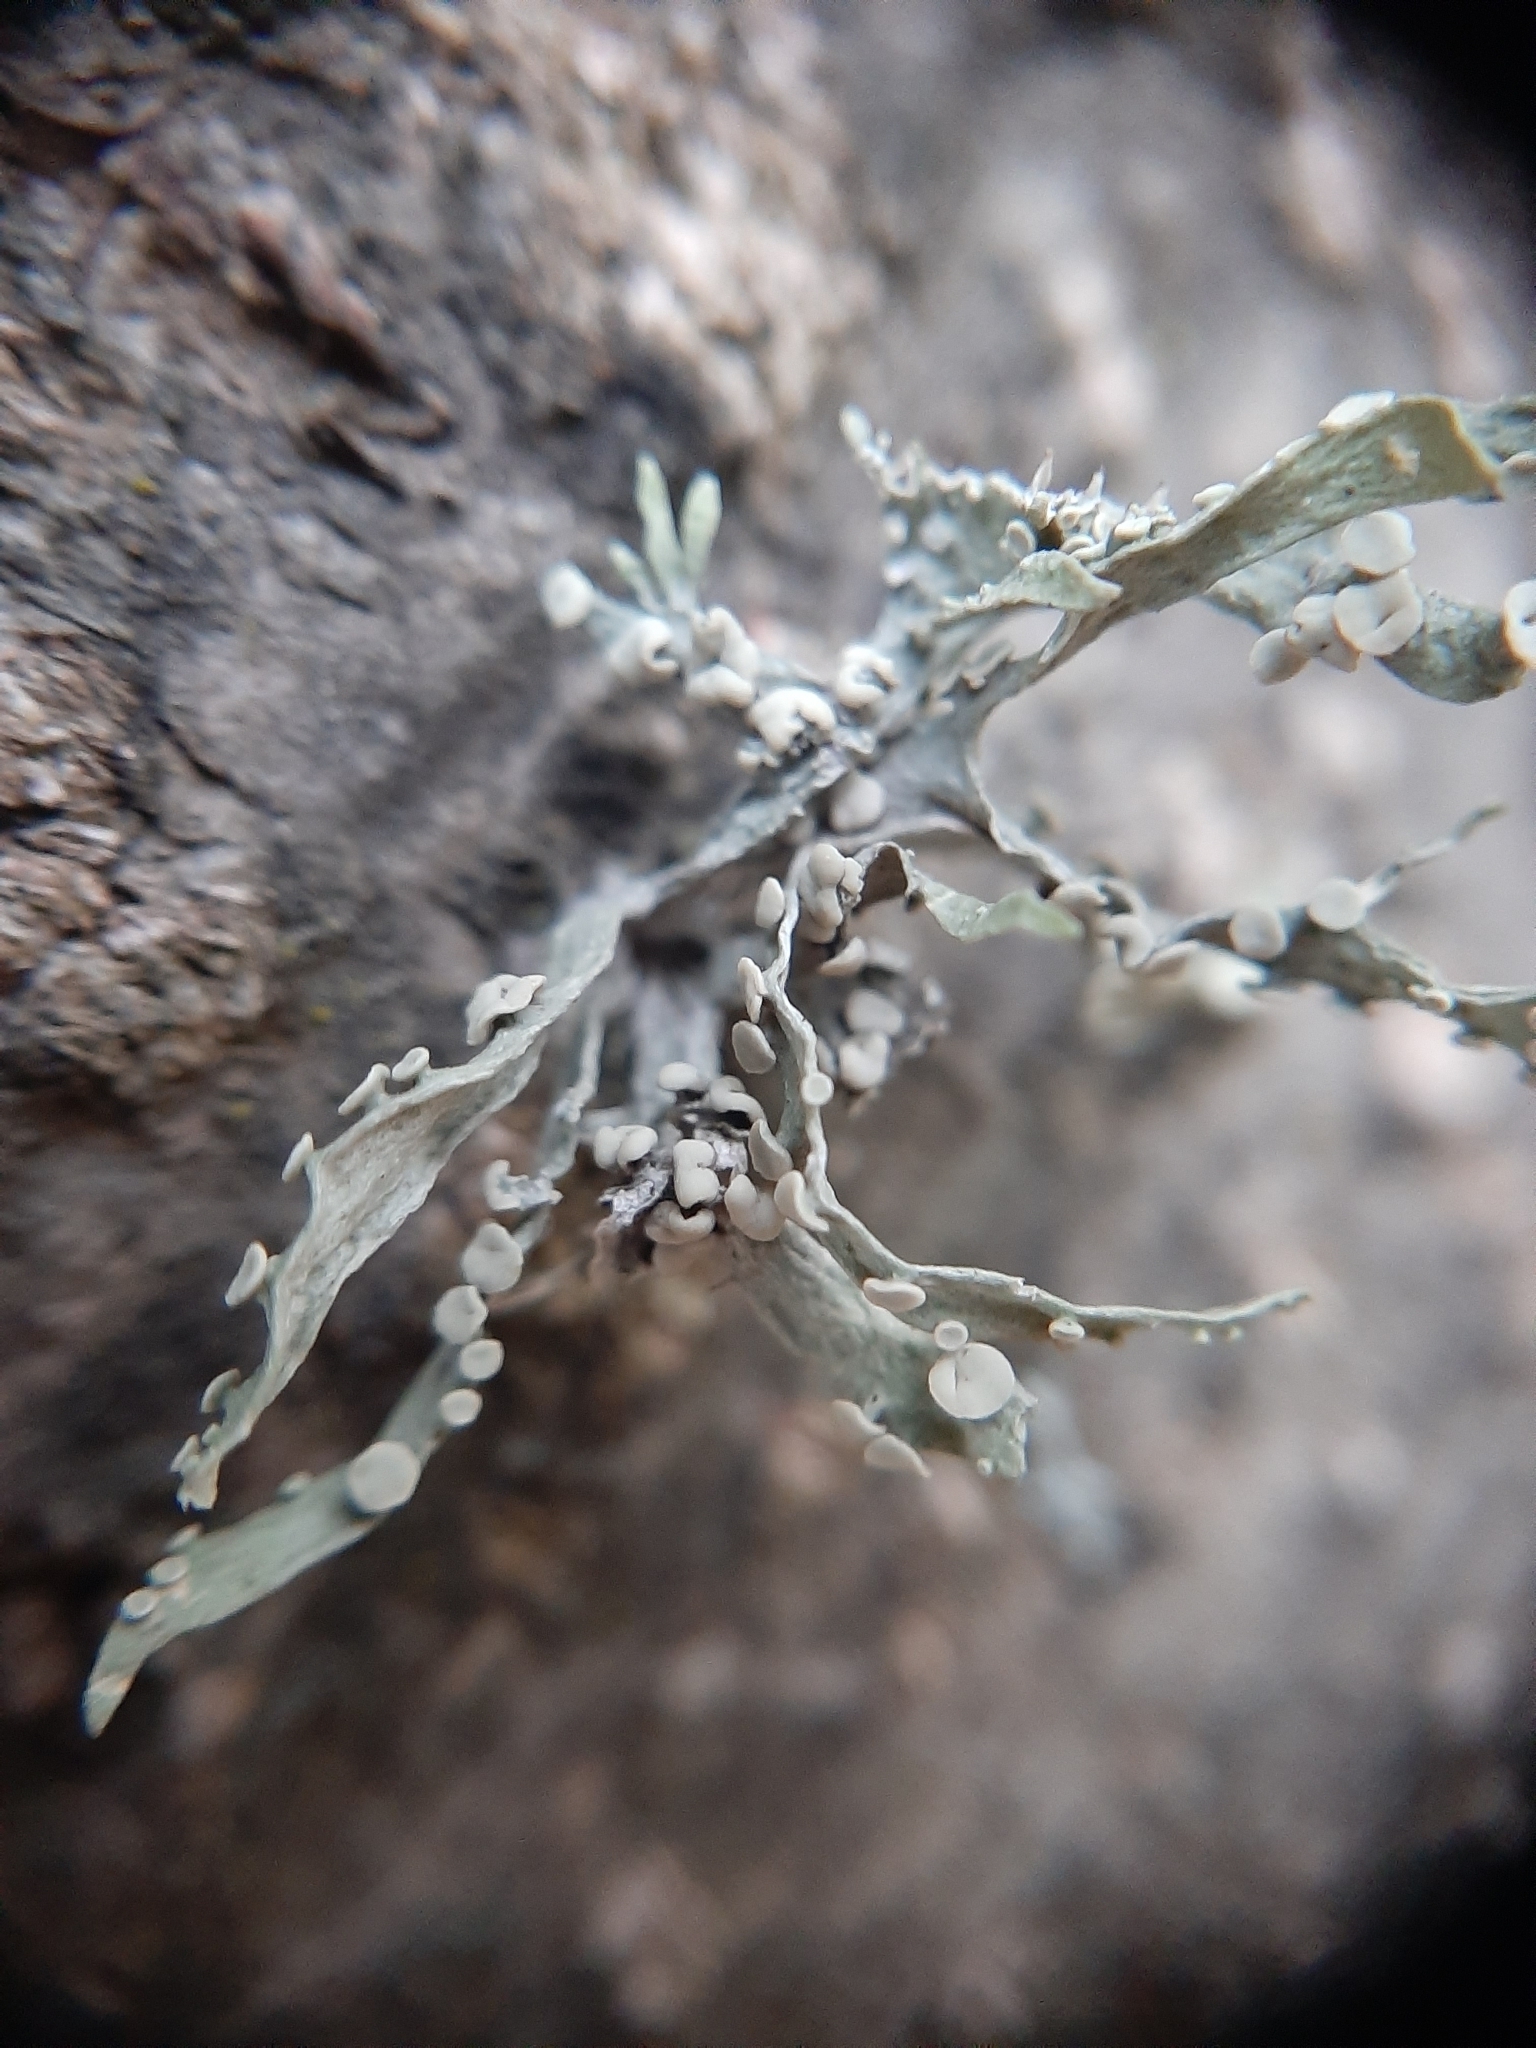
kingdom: Fungi
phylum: Ascomycota
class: Lecanoromycetes
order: Lecanorales
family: Ramalinaceae
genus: Ramalina
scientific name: Ramalina celastri
